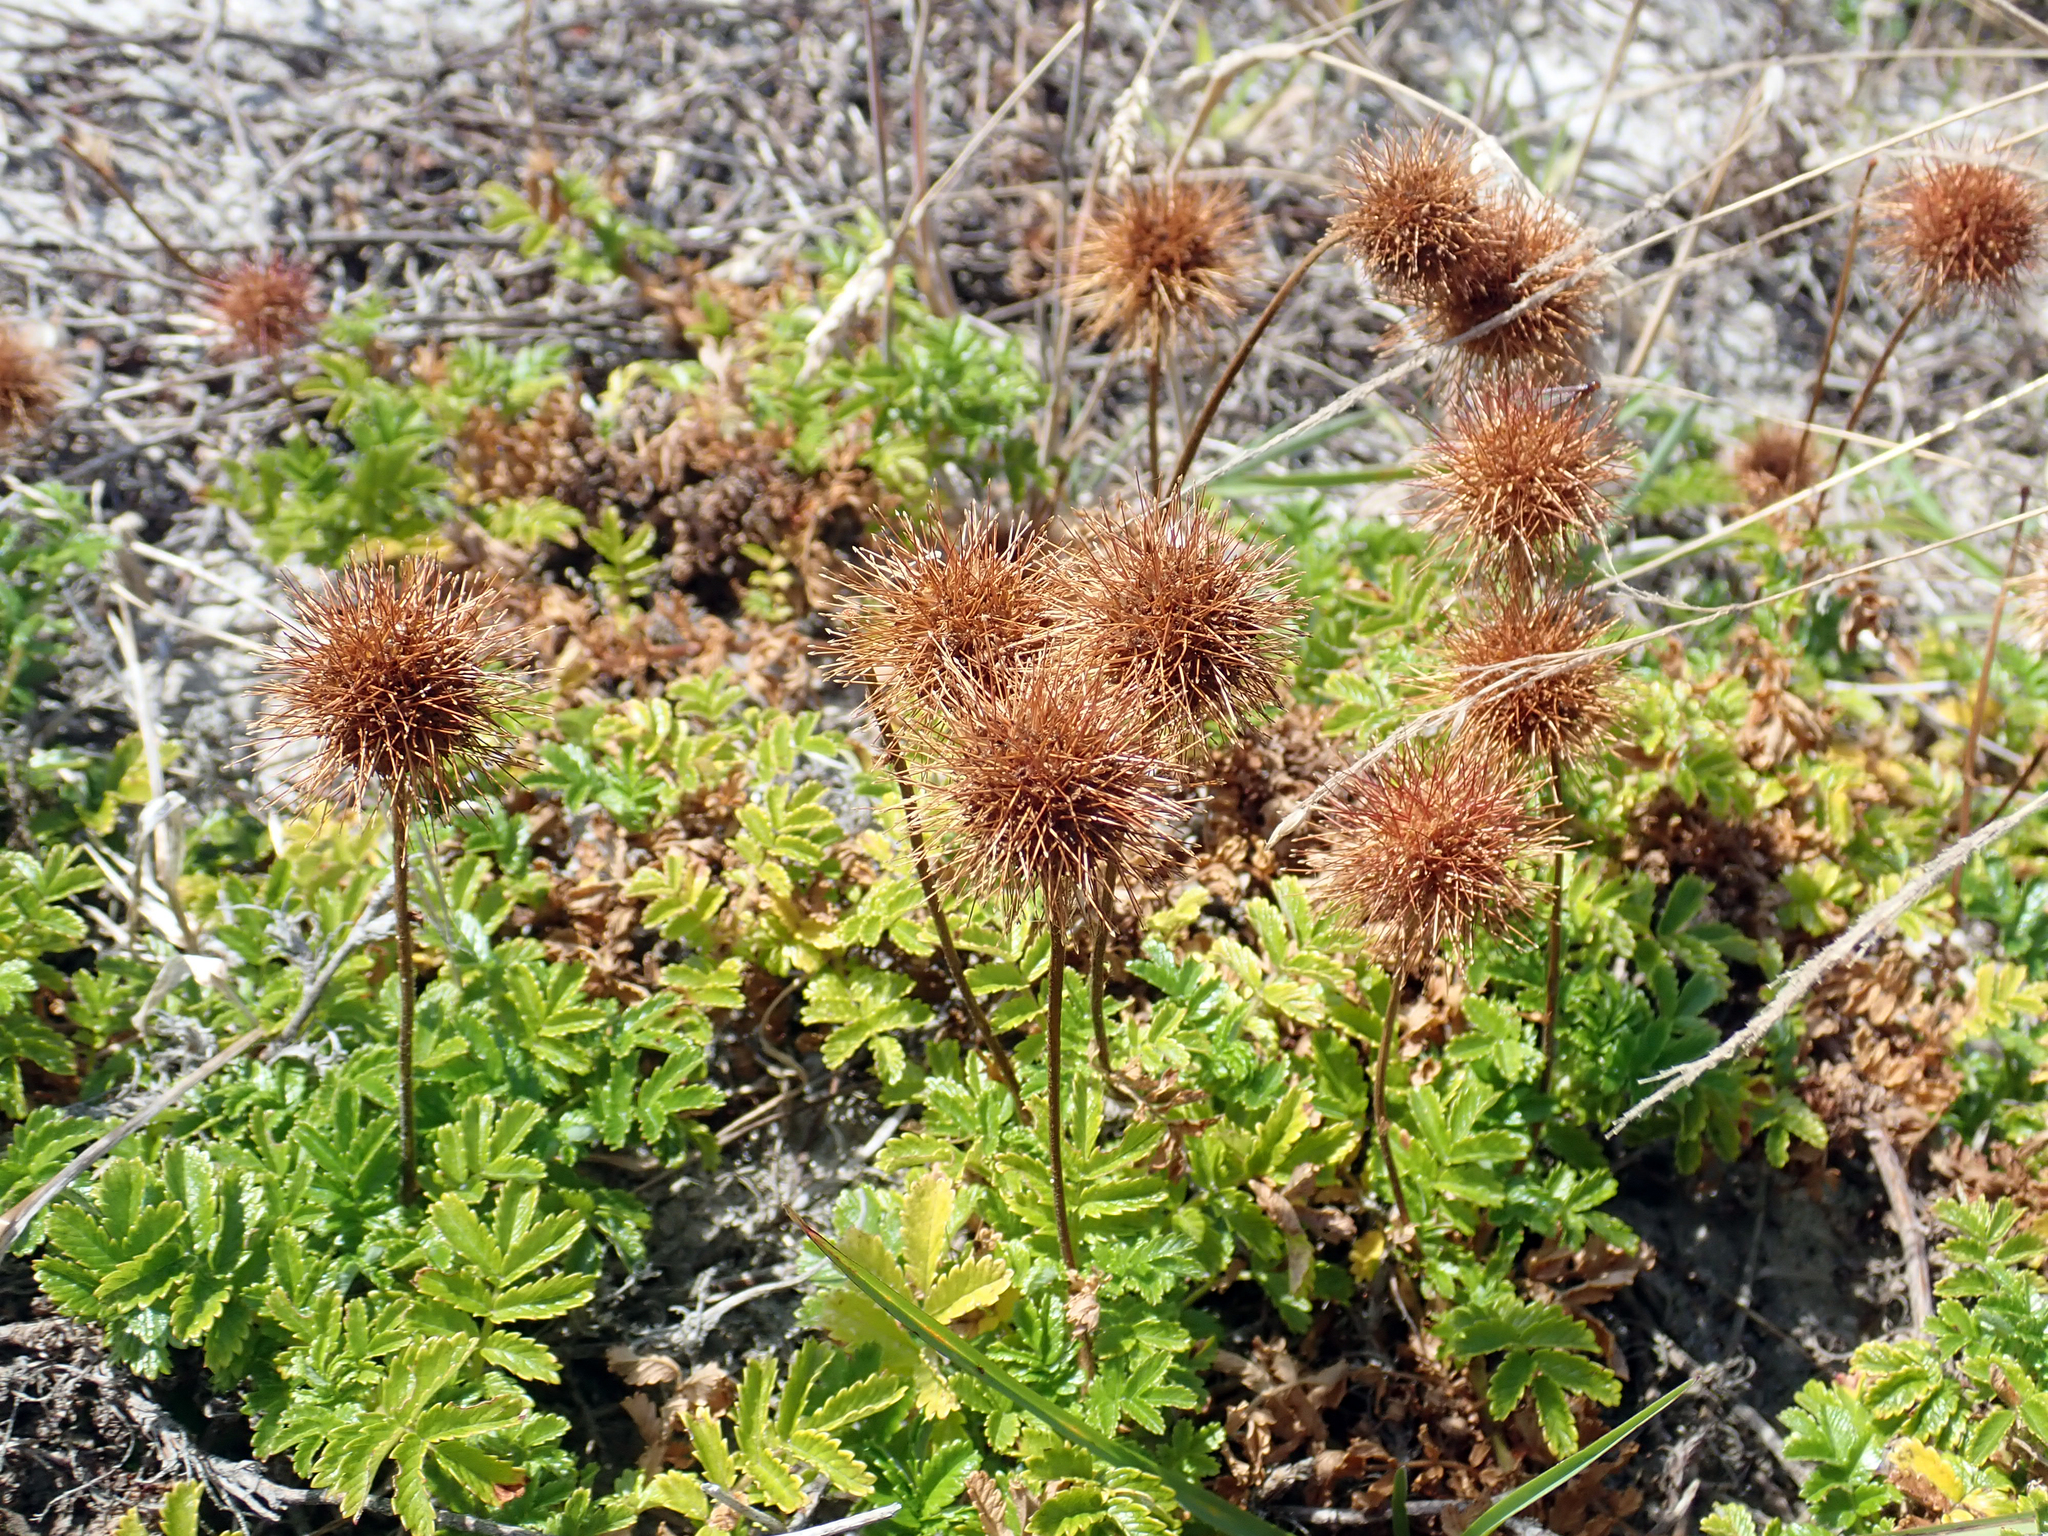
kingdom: Plantae
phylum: Tracheophyta
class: Magnoliopsida
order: Rosales
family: Rosaceae
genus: Acaena
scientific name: Acaena pallida
